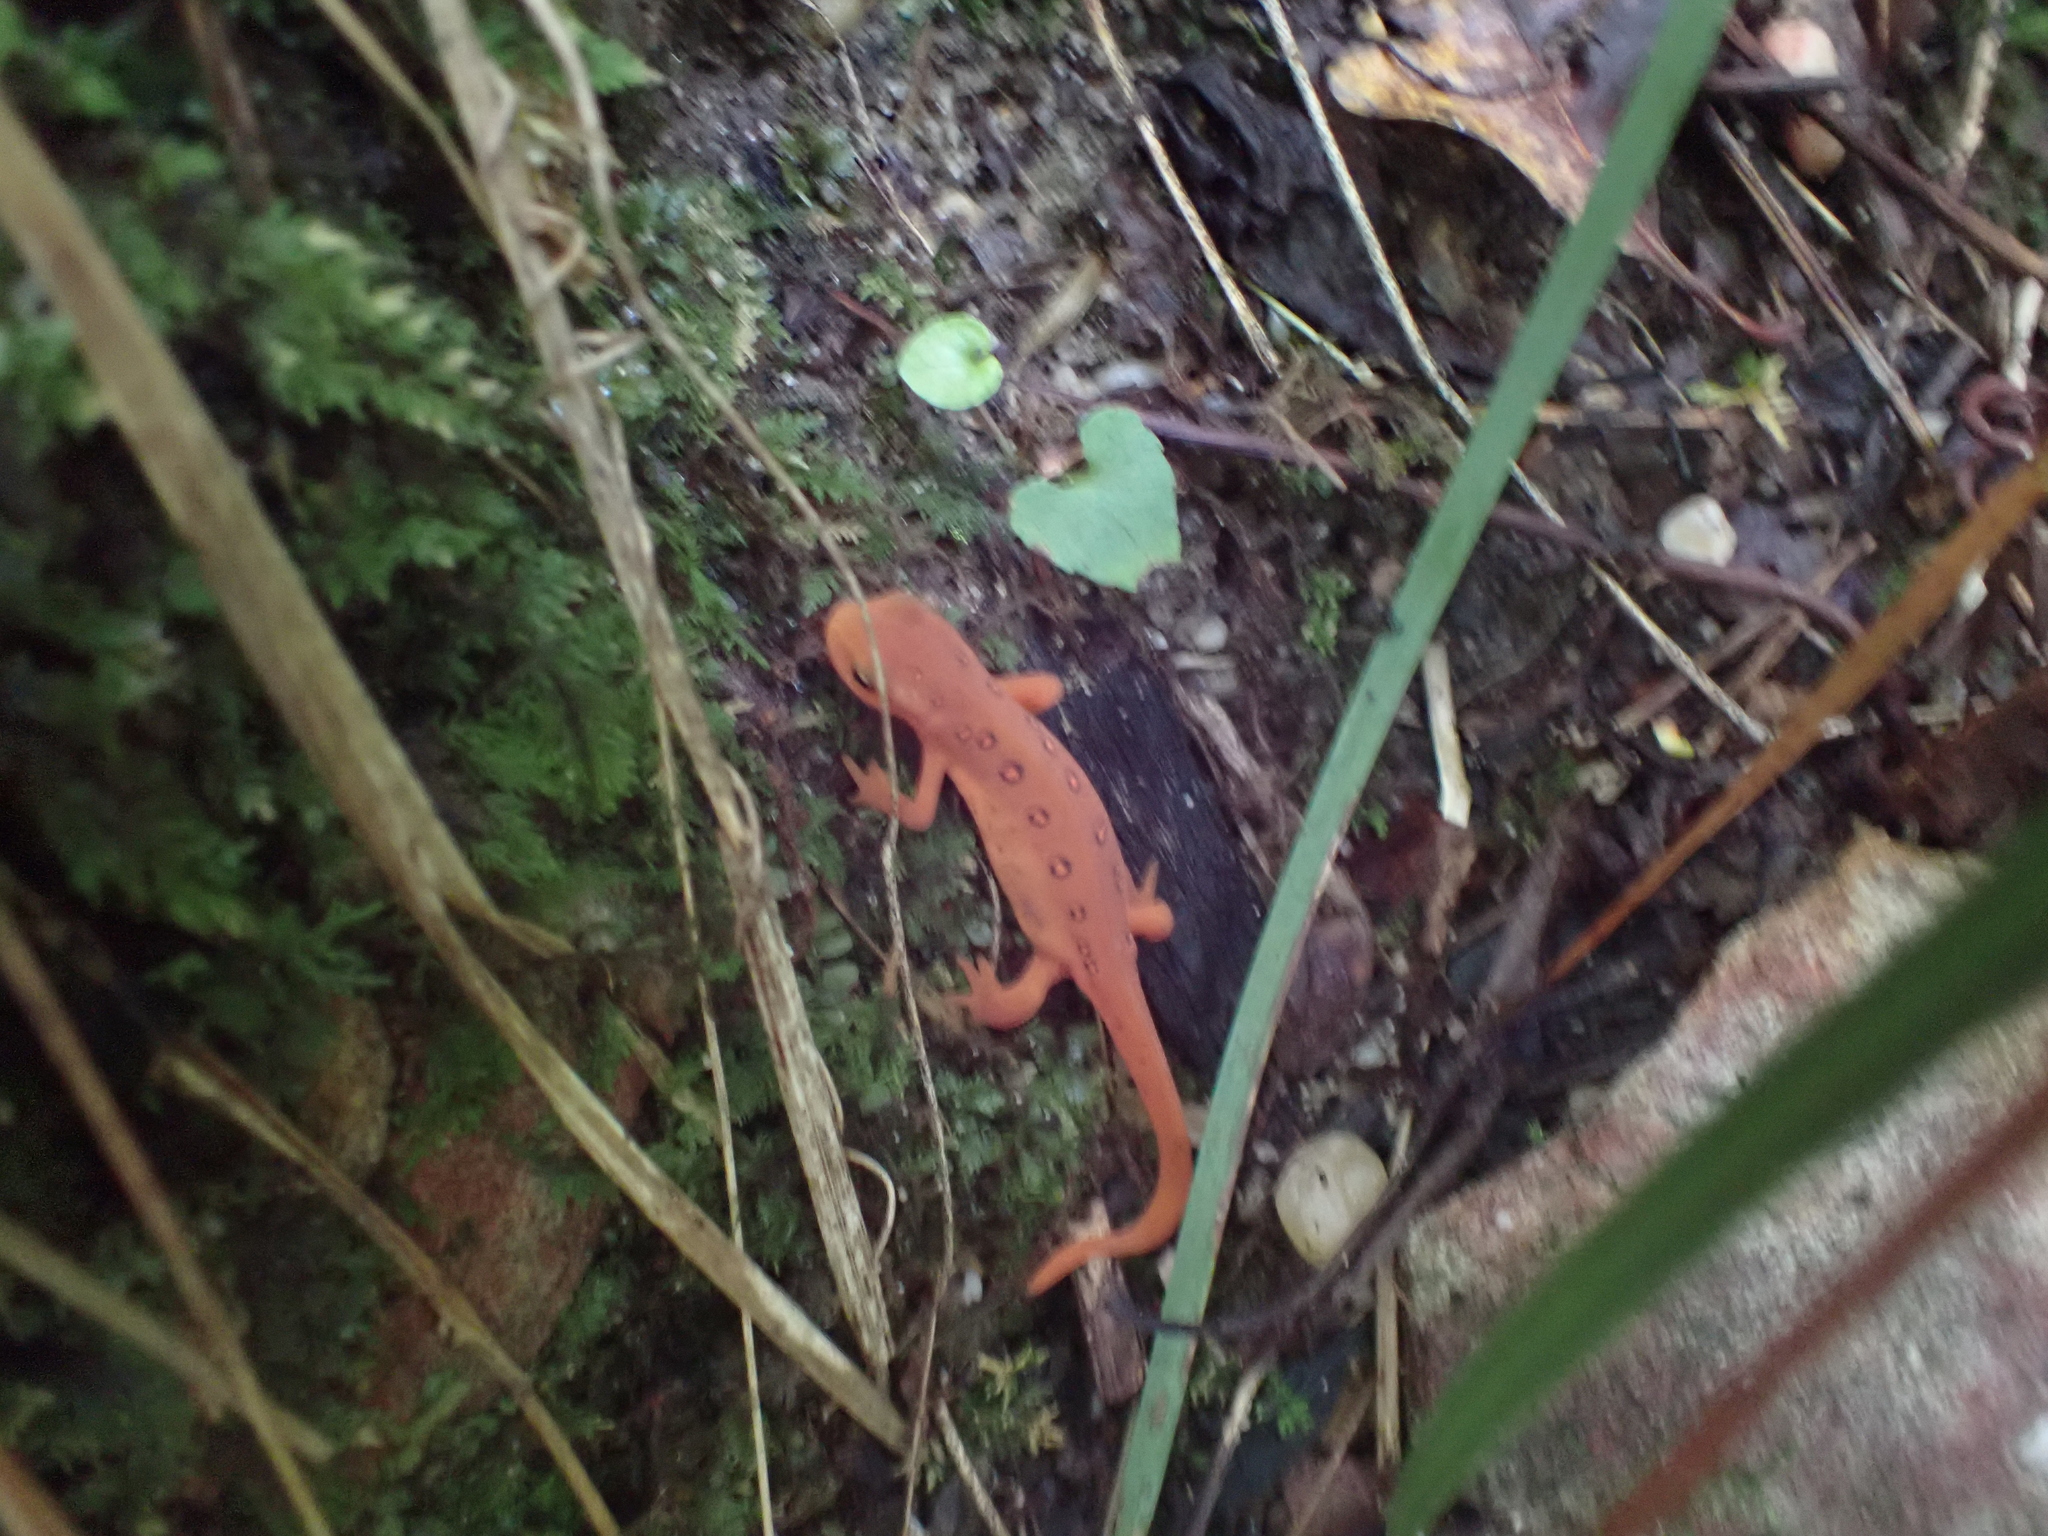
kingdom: Animalia
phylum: Chordata
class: Amphibia
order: Caudata
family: Salamandridae
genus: Notophthalmus
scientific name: Notophthalmus viridescens
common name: Eastern newt
